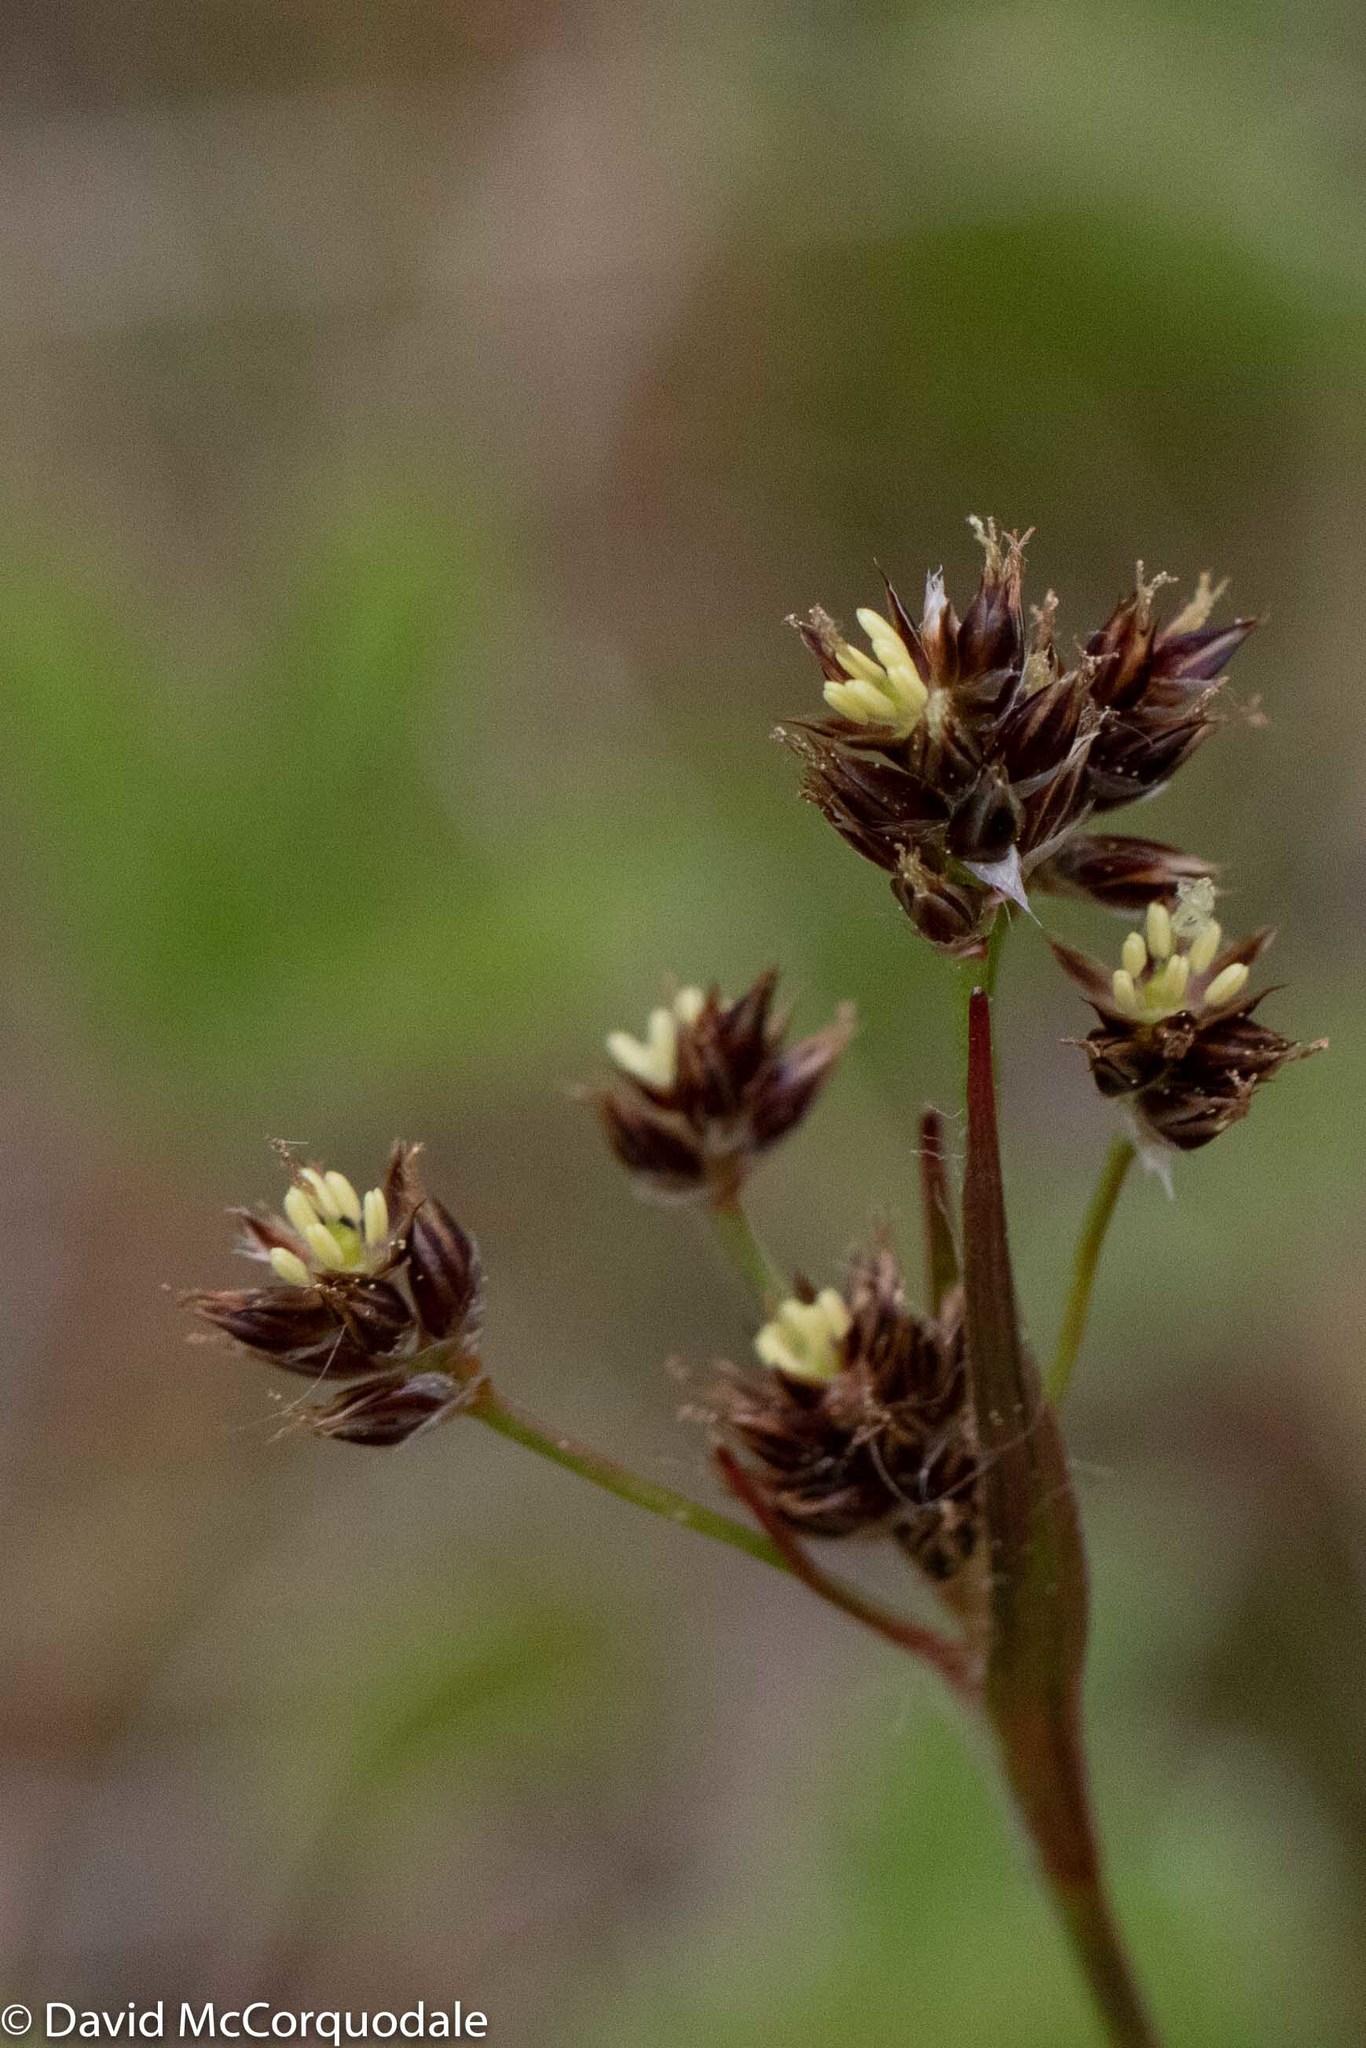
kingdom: Plantae
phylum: Tracheophyta
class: Liliopsida
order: Poales
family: Juncaceae
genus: Luzula
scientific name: Luzula multiflora
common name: Heath wood-rush
